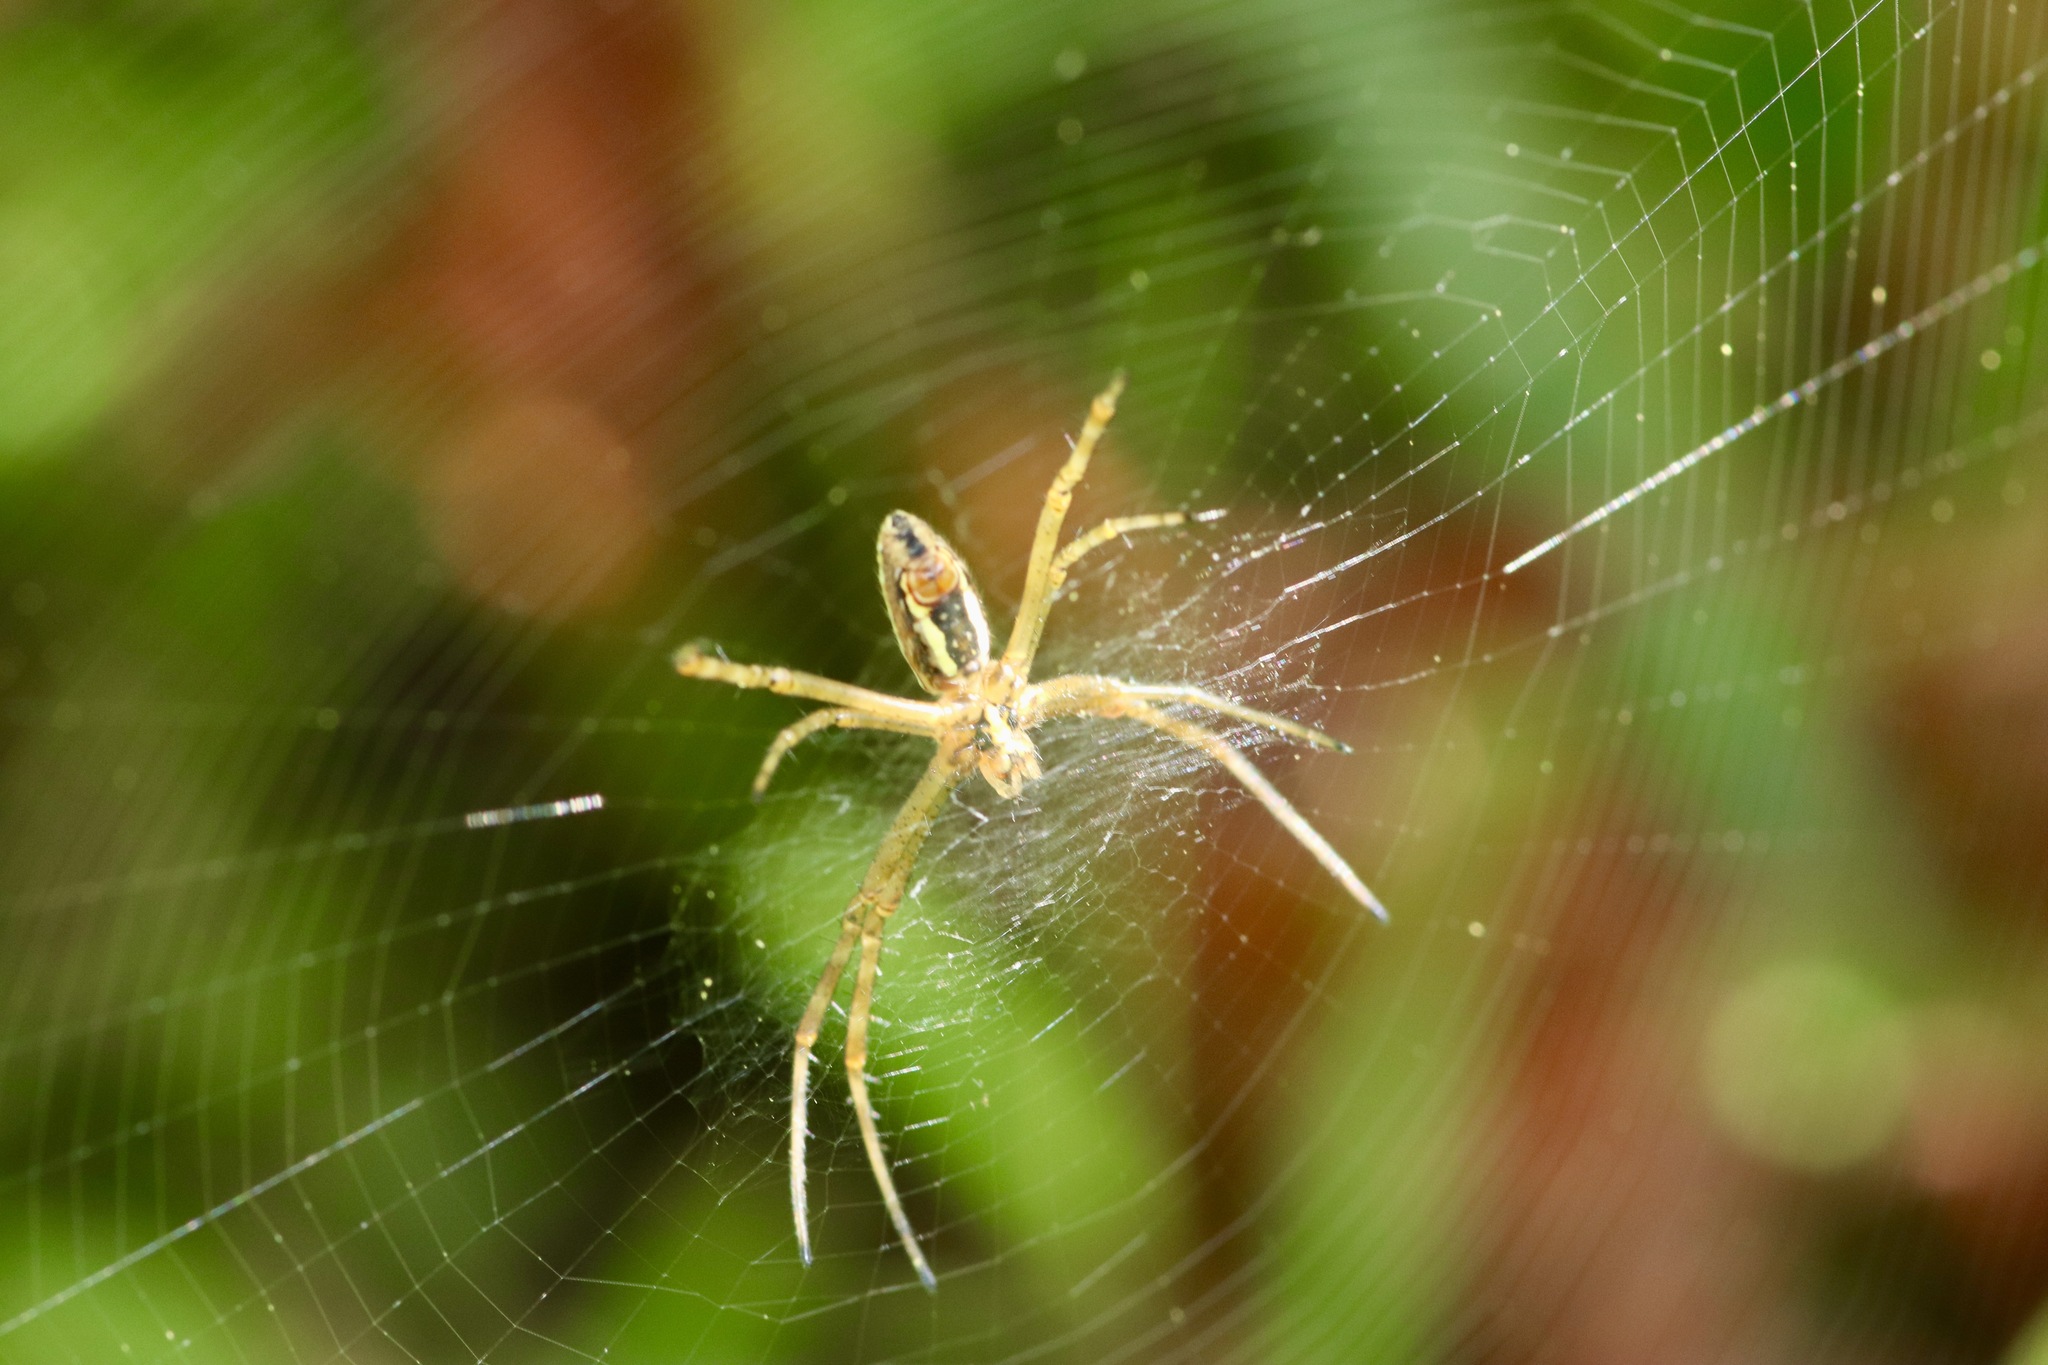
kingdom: Animalia
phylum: Arthropoda
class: Arachnida
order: Araneae
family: Araneidae
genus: Argiope
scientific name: Argiope trifasciata
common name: Banded garden spider
